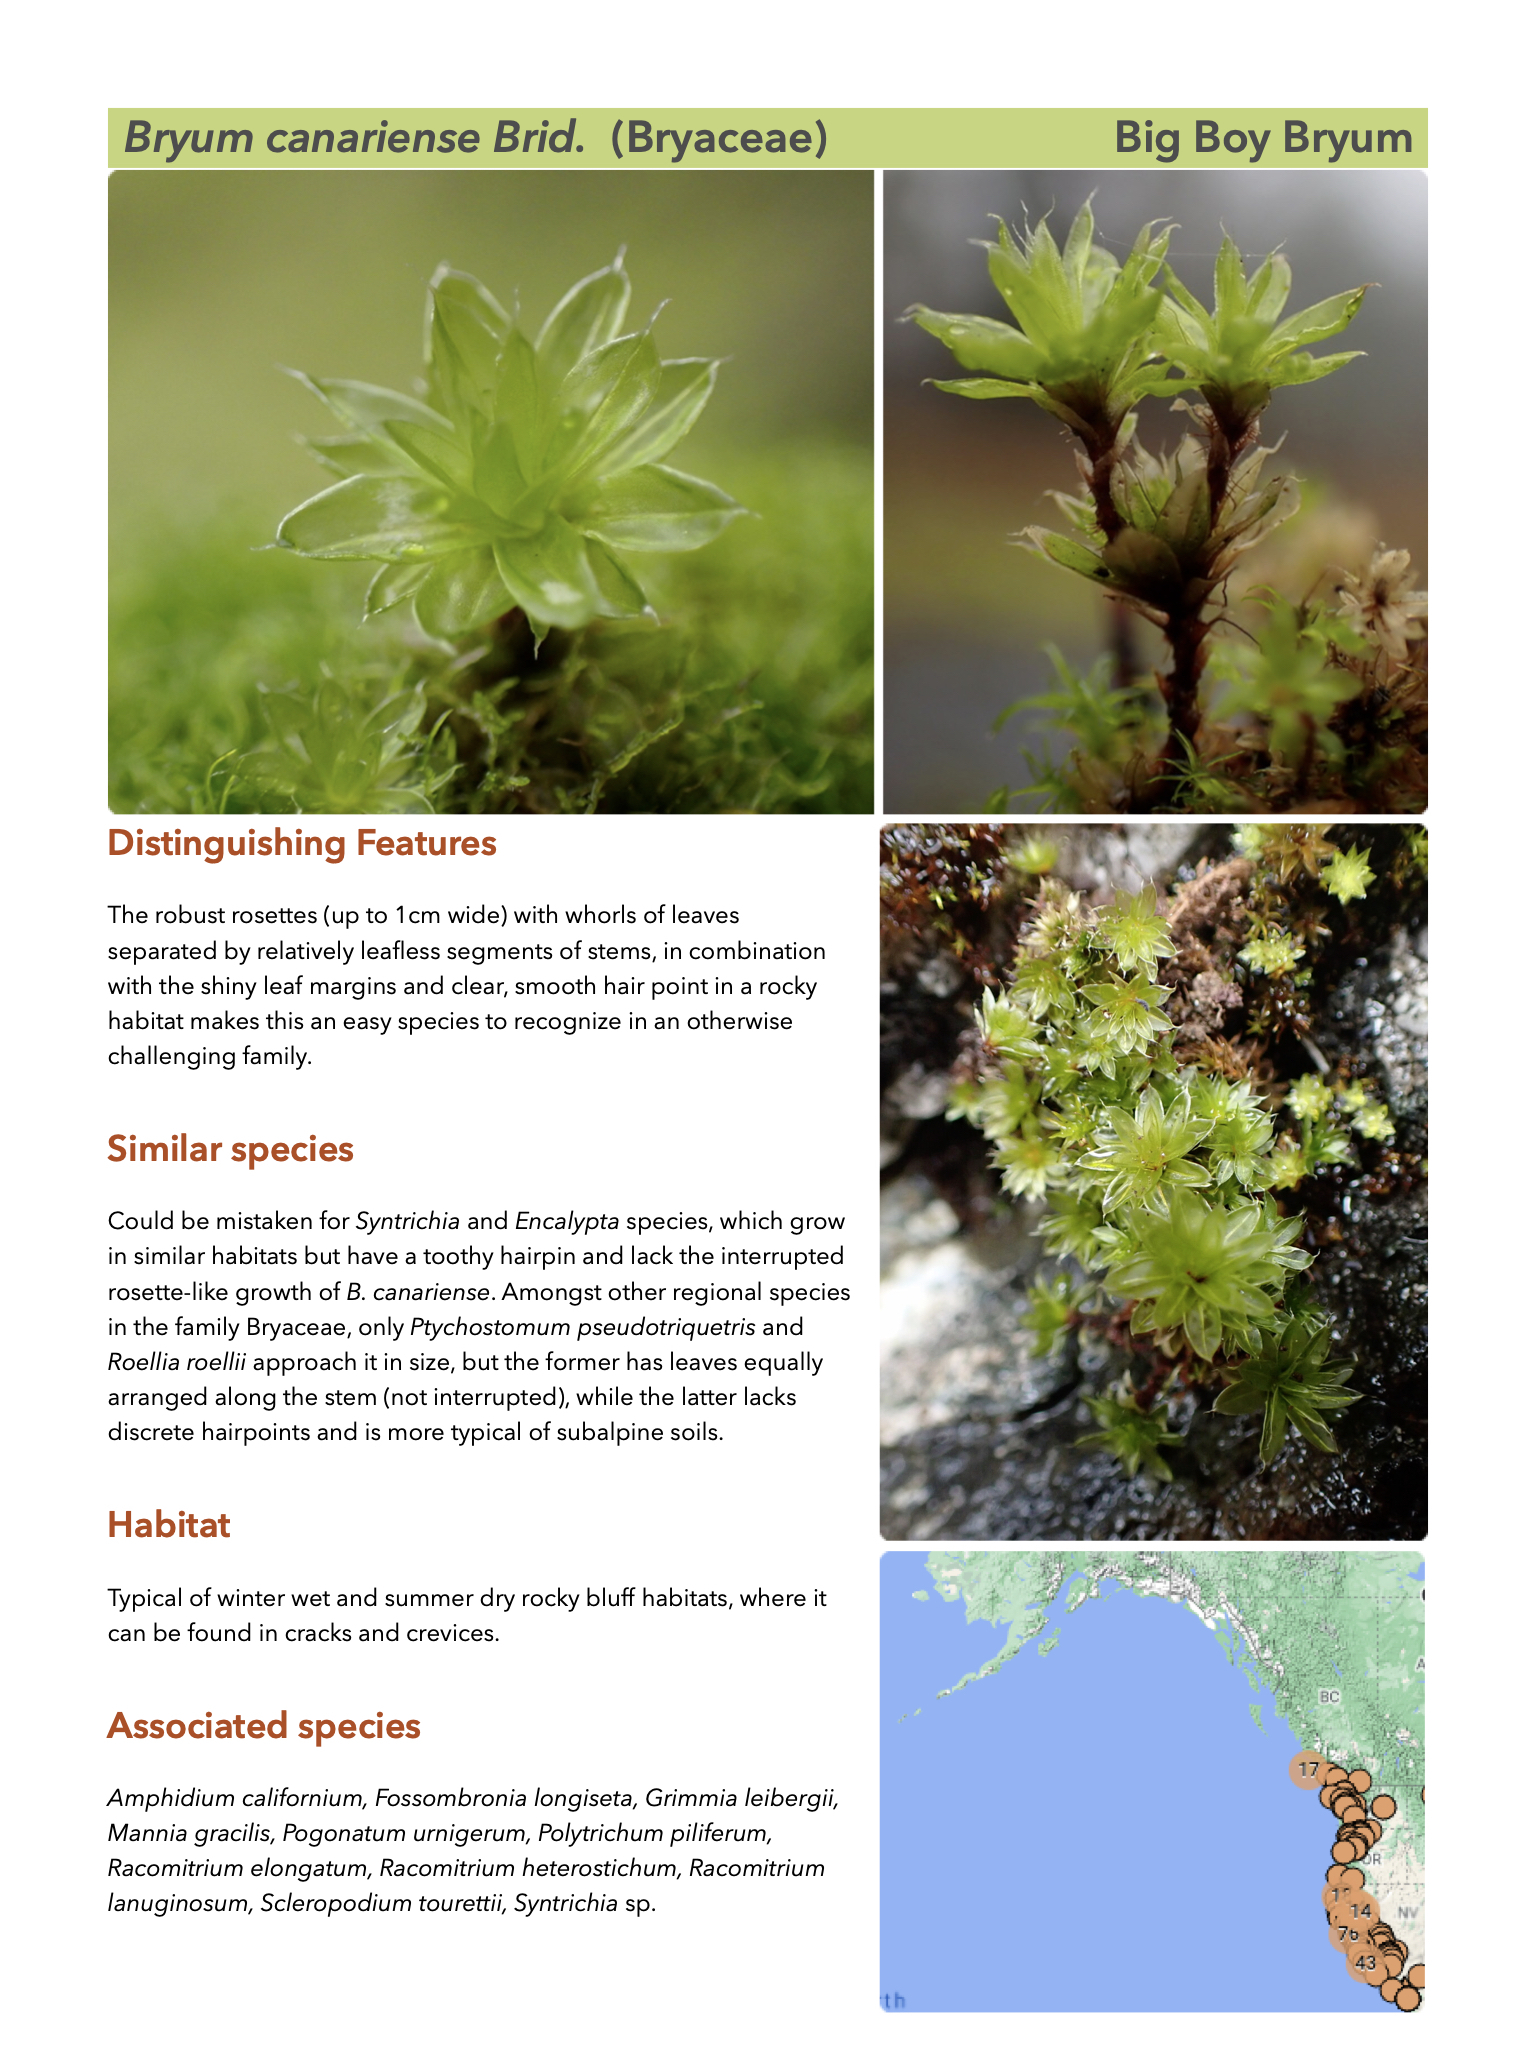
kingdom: Plantae
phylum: Bryophyta
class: Bryopsida
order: Bryales
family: Bryaceae
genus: Rosulabryum
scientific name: Rosulabryum canariense
